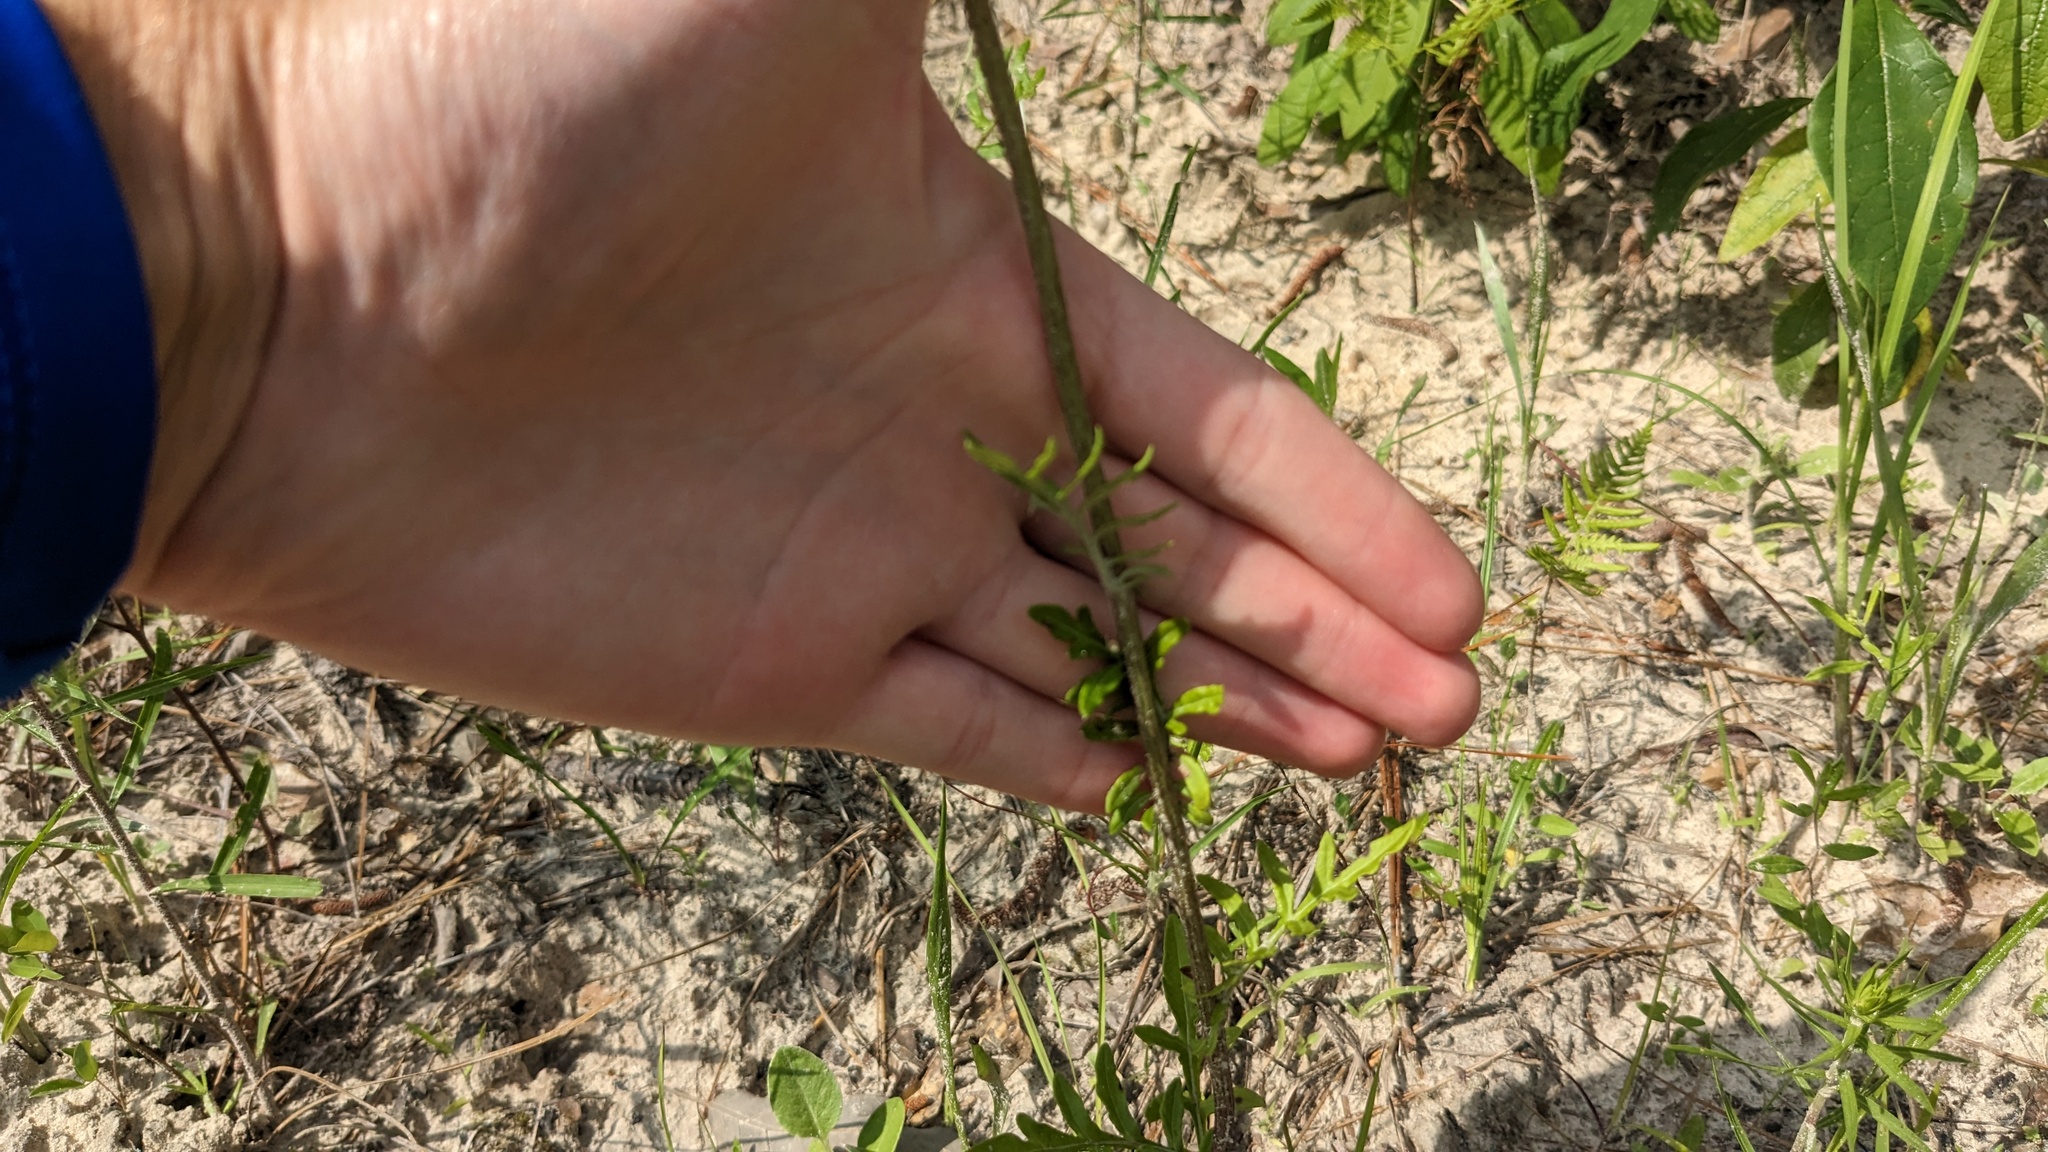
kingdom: Plantae
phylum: Tracheophyta
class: Magnoliopsida
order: Asterales
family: Asteraceae
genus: Hymenopappus
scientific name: Hymenopappus artemisiifolius
